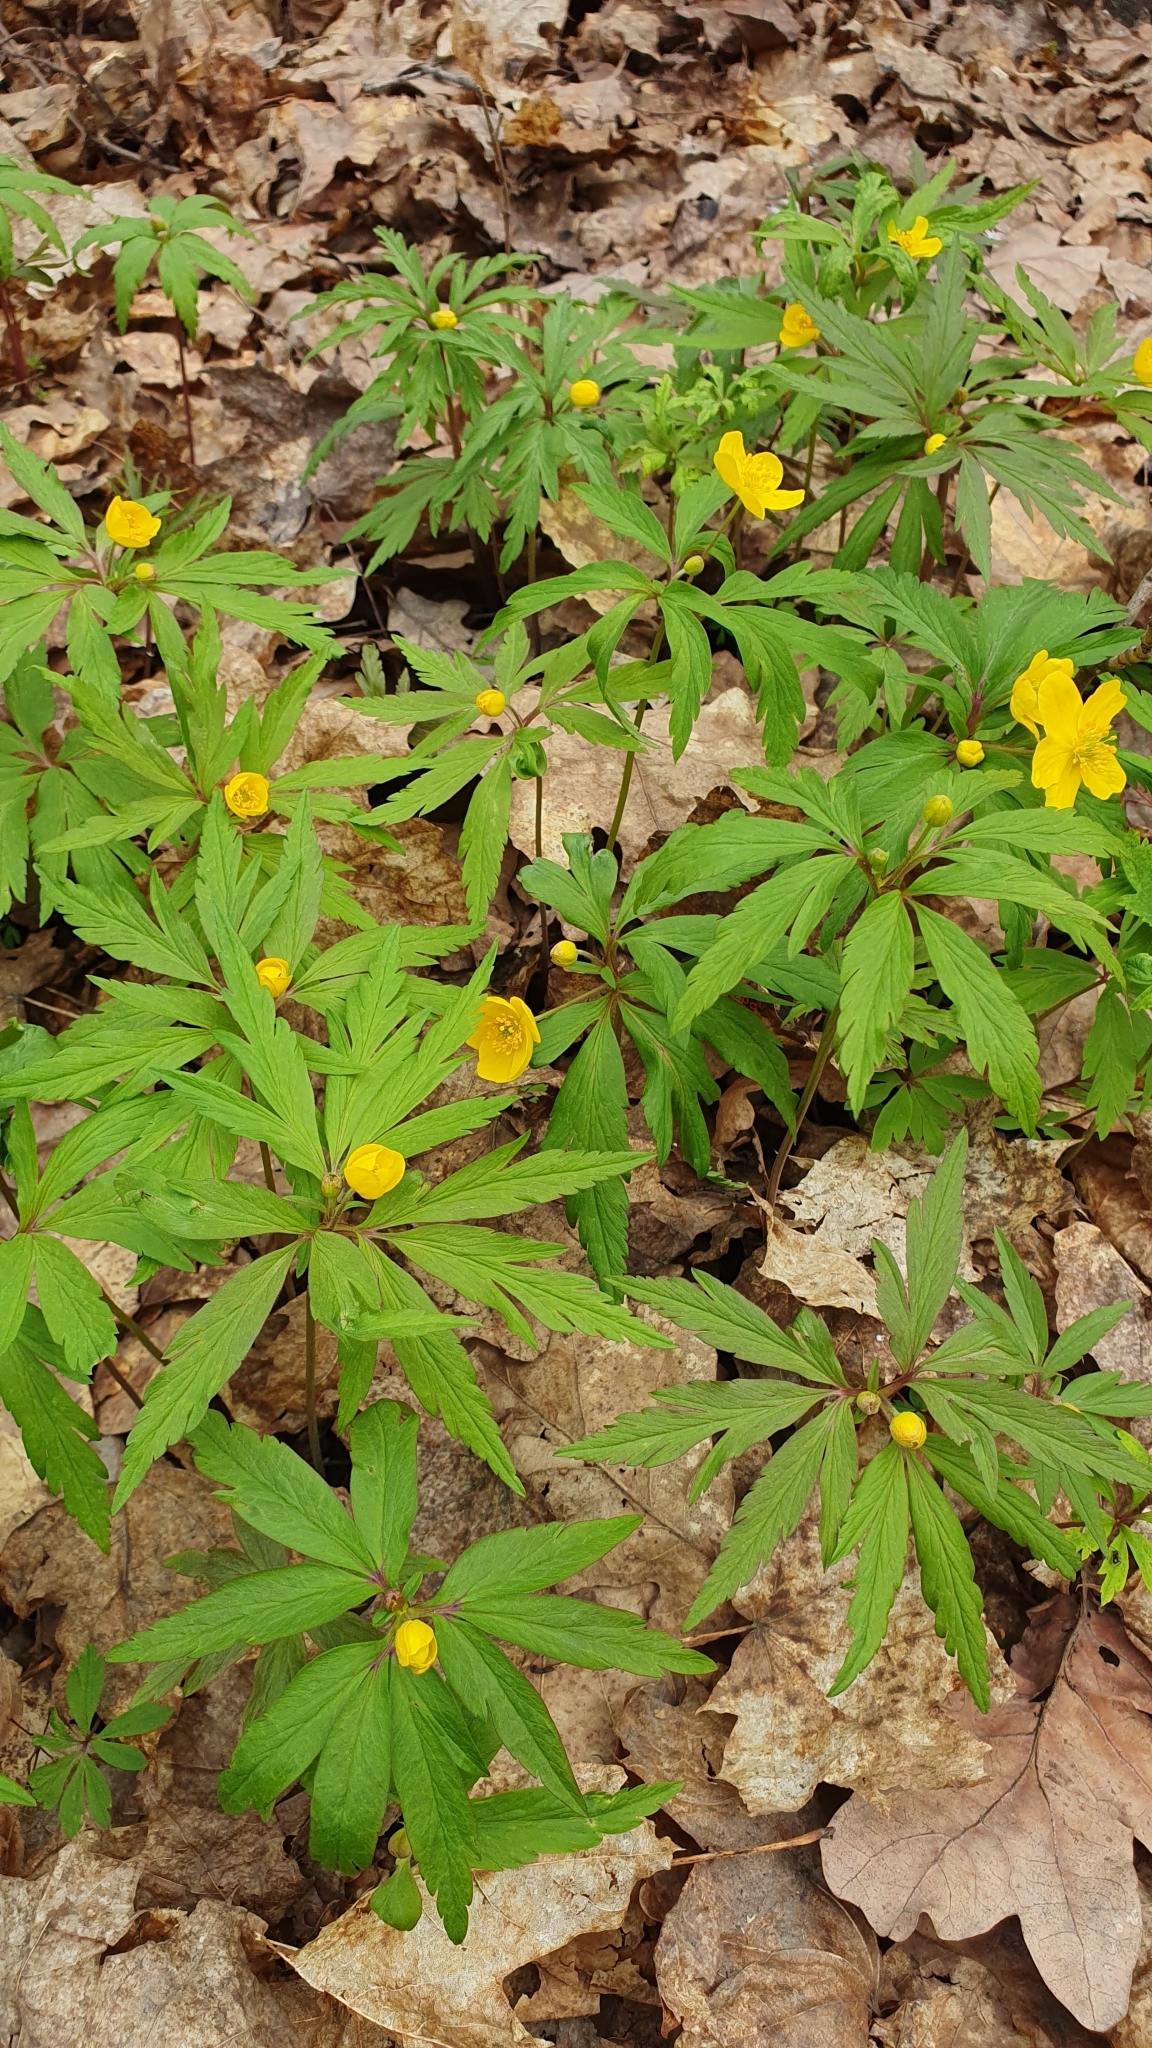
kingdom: Plantae
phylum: Tracheophyta
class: Magnoliopsida
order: Ranunculales
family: Ranunculaceae
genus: Anemone
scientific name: Anemone ranunculoides
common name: Yellow anemone
